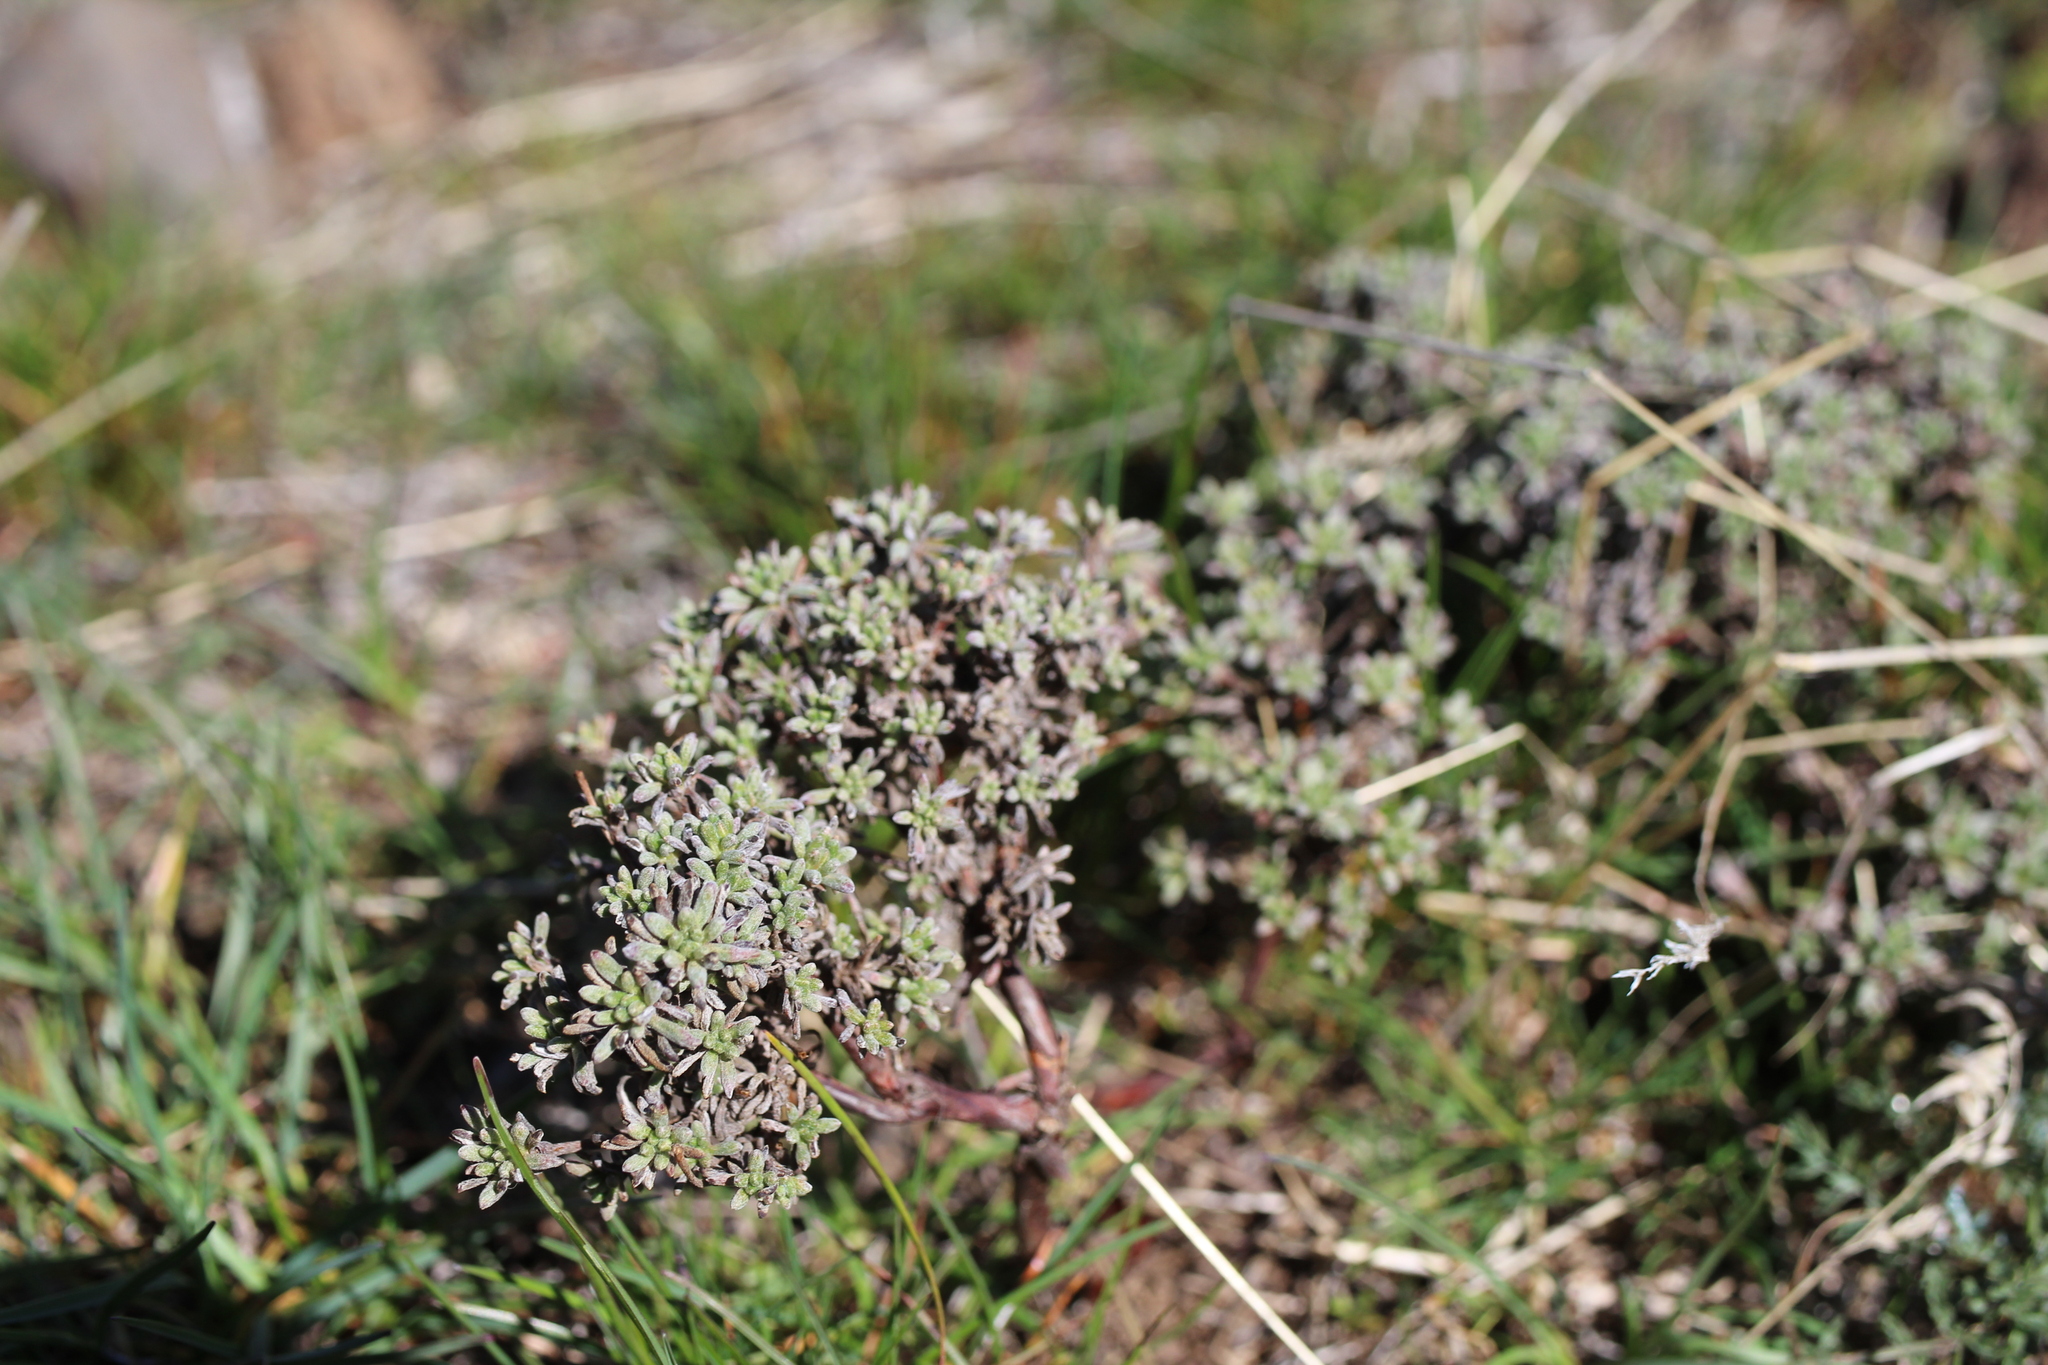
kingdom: Plantae
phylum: Tracheophyta
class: Magnoliopsida
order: Caryophyllales
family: Polygonaceae
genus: Eriogonum
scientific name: Eriogonum thymoides
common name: Thyme-leaf wild buckwheat
